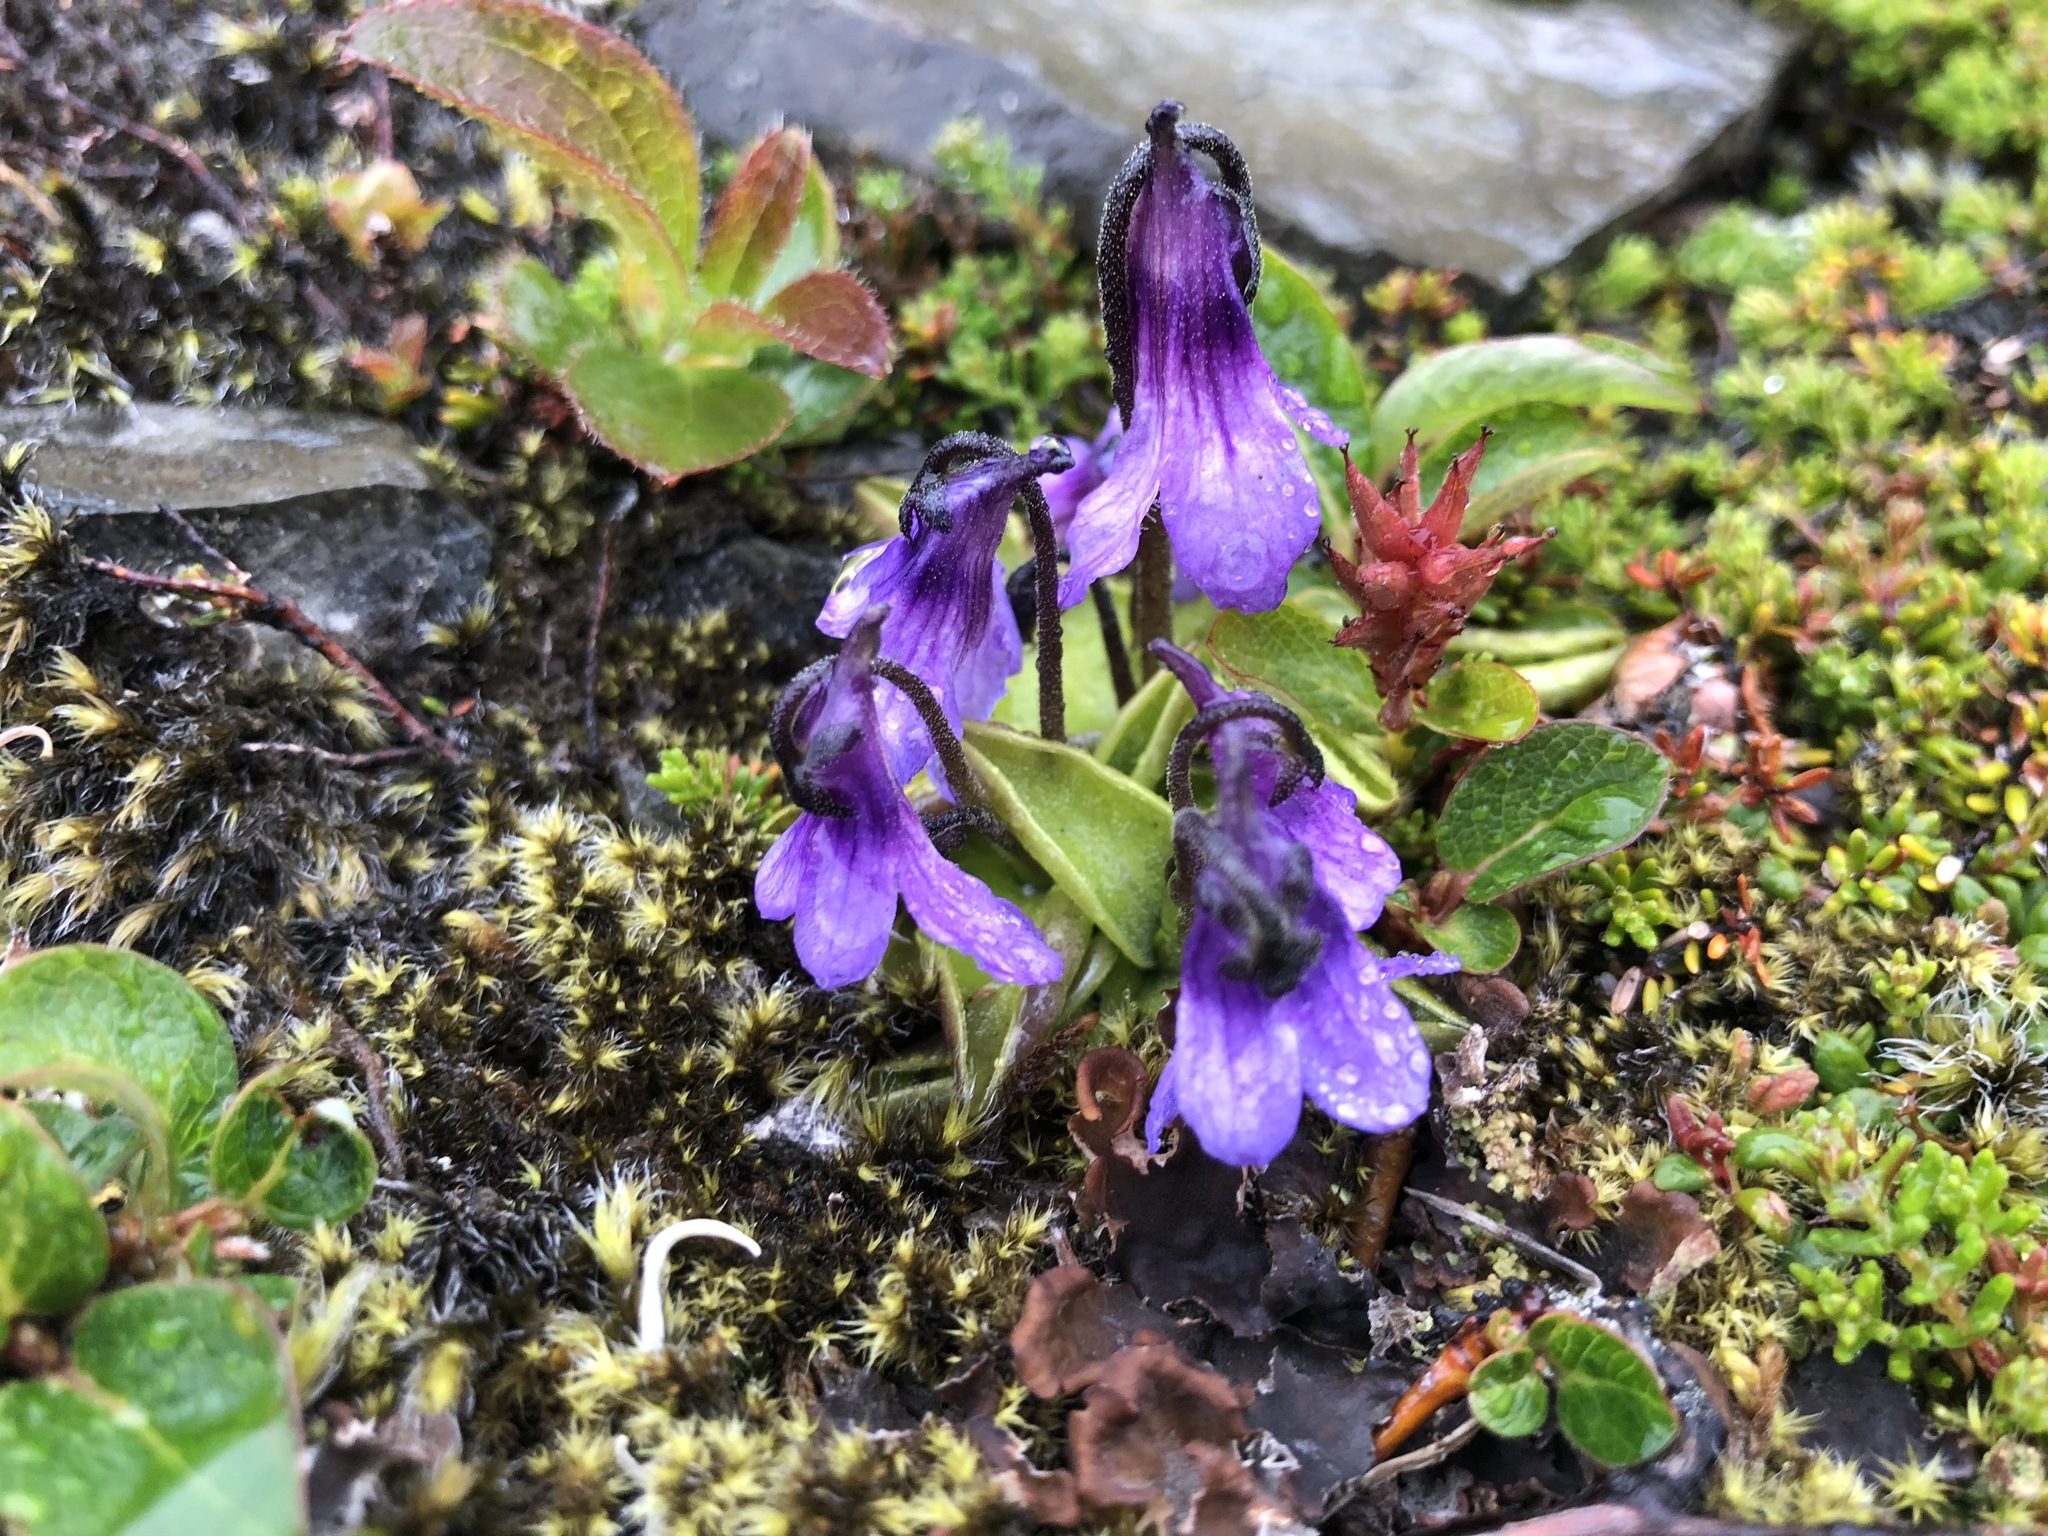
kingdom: Plantae
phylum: Tracheophyta
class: Magnoliopsida
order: Lamiales
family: Lentibulariaceae
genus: Pinguicula
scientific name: Pinguicula vulgaris
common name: Common butterwort
